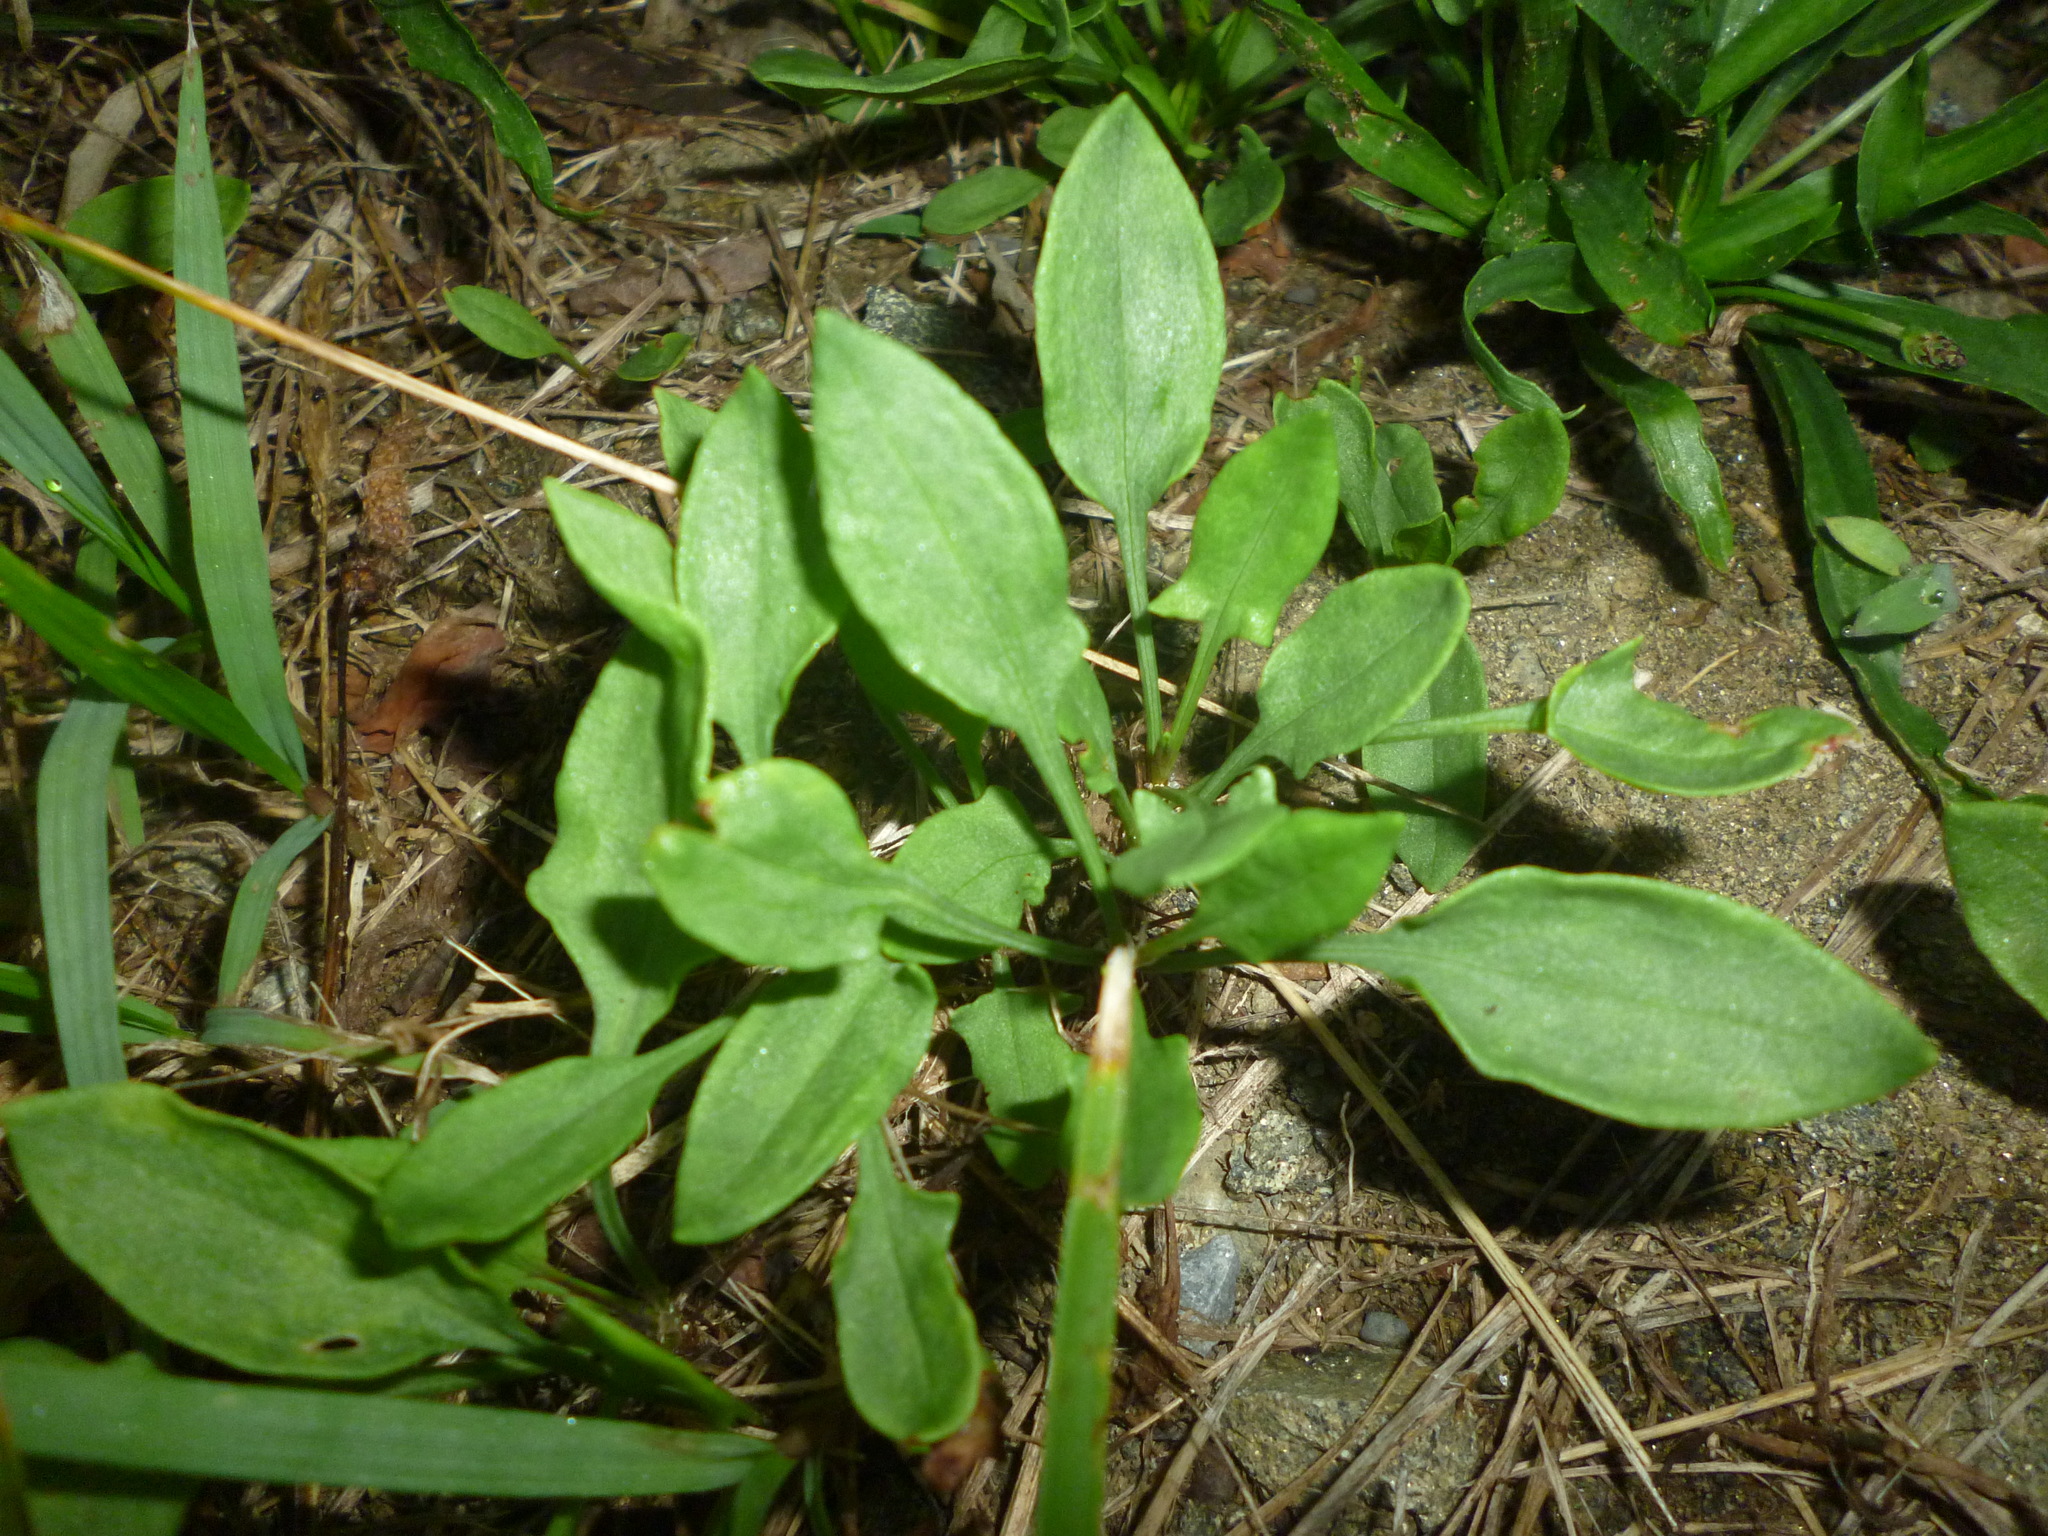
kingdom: Plantae
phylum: Tracheophyta
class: Magnoliopsida
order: Caryophyllales
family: Polygonaceae
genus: Rumex
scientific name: Rumex acetosella
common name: Common sheep sorrel
